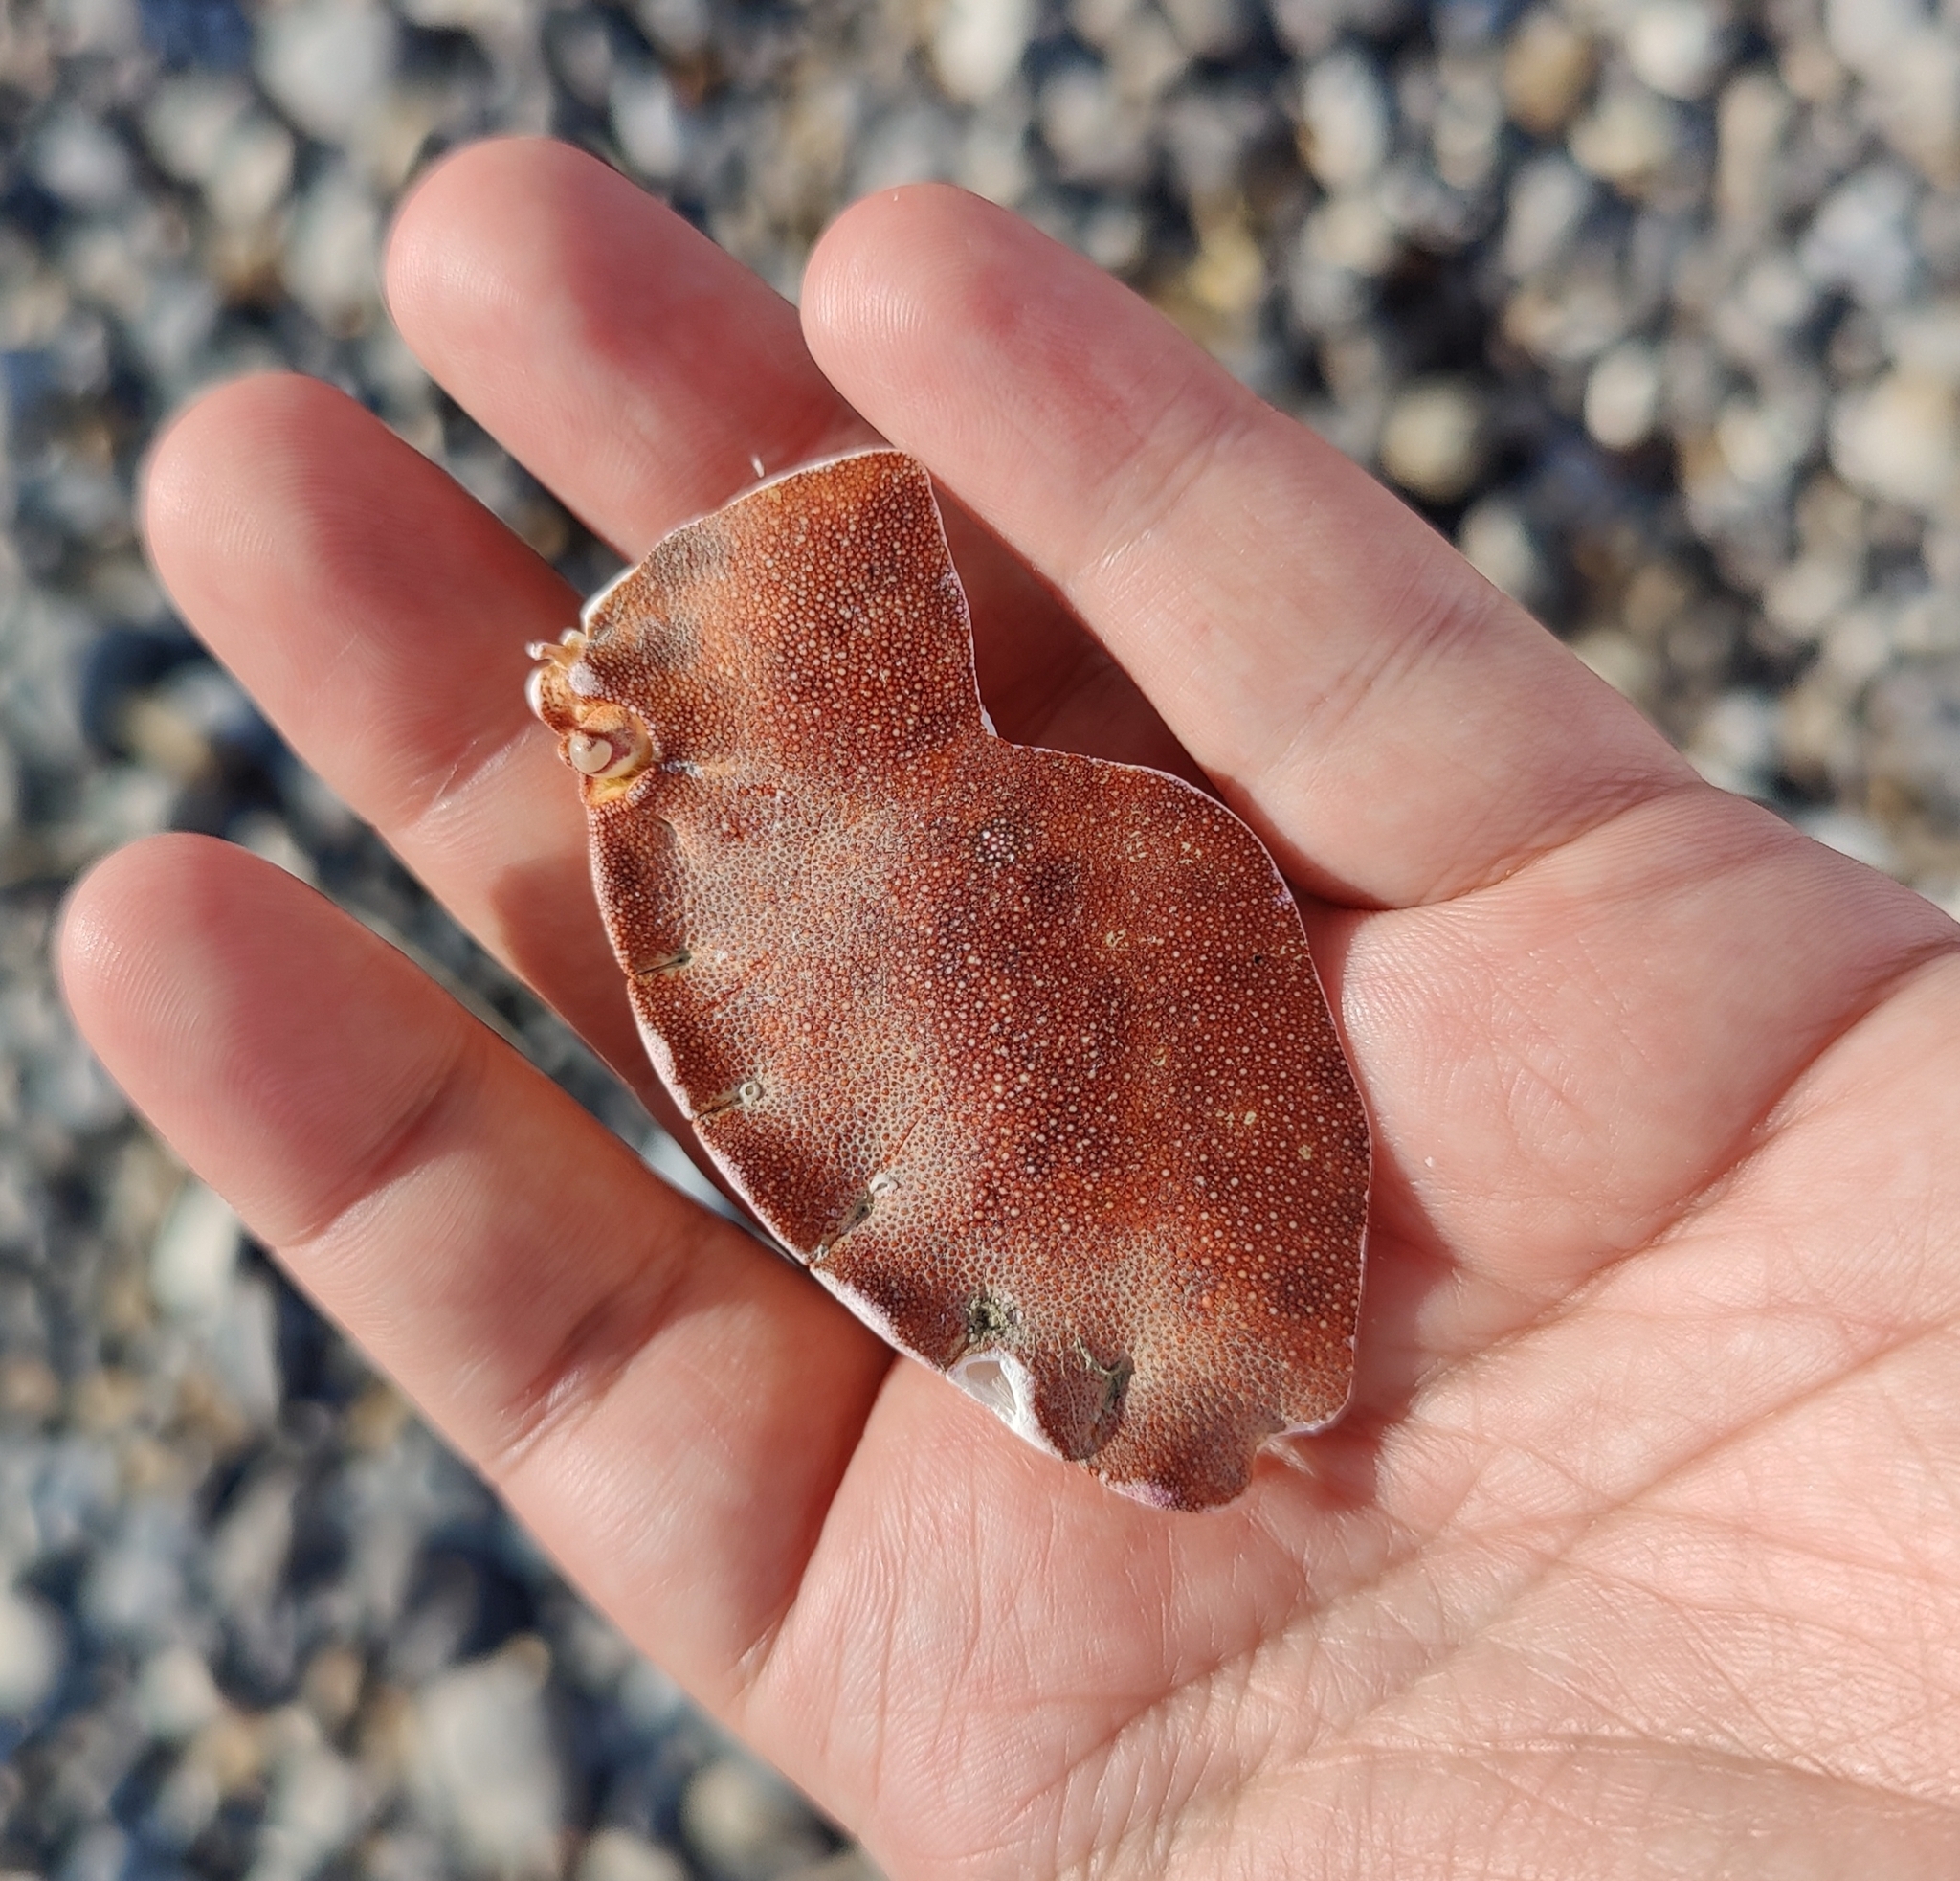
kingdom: Animalia
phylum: Arthropoda
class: Malacostraca
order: Decapoda
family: Cancridae
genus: Cancer
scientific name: Cancer pagurus
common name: Edible crab
